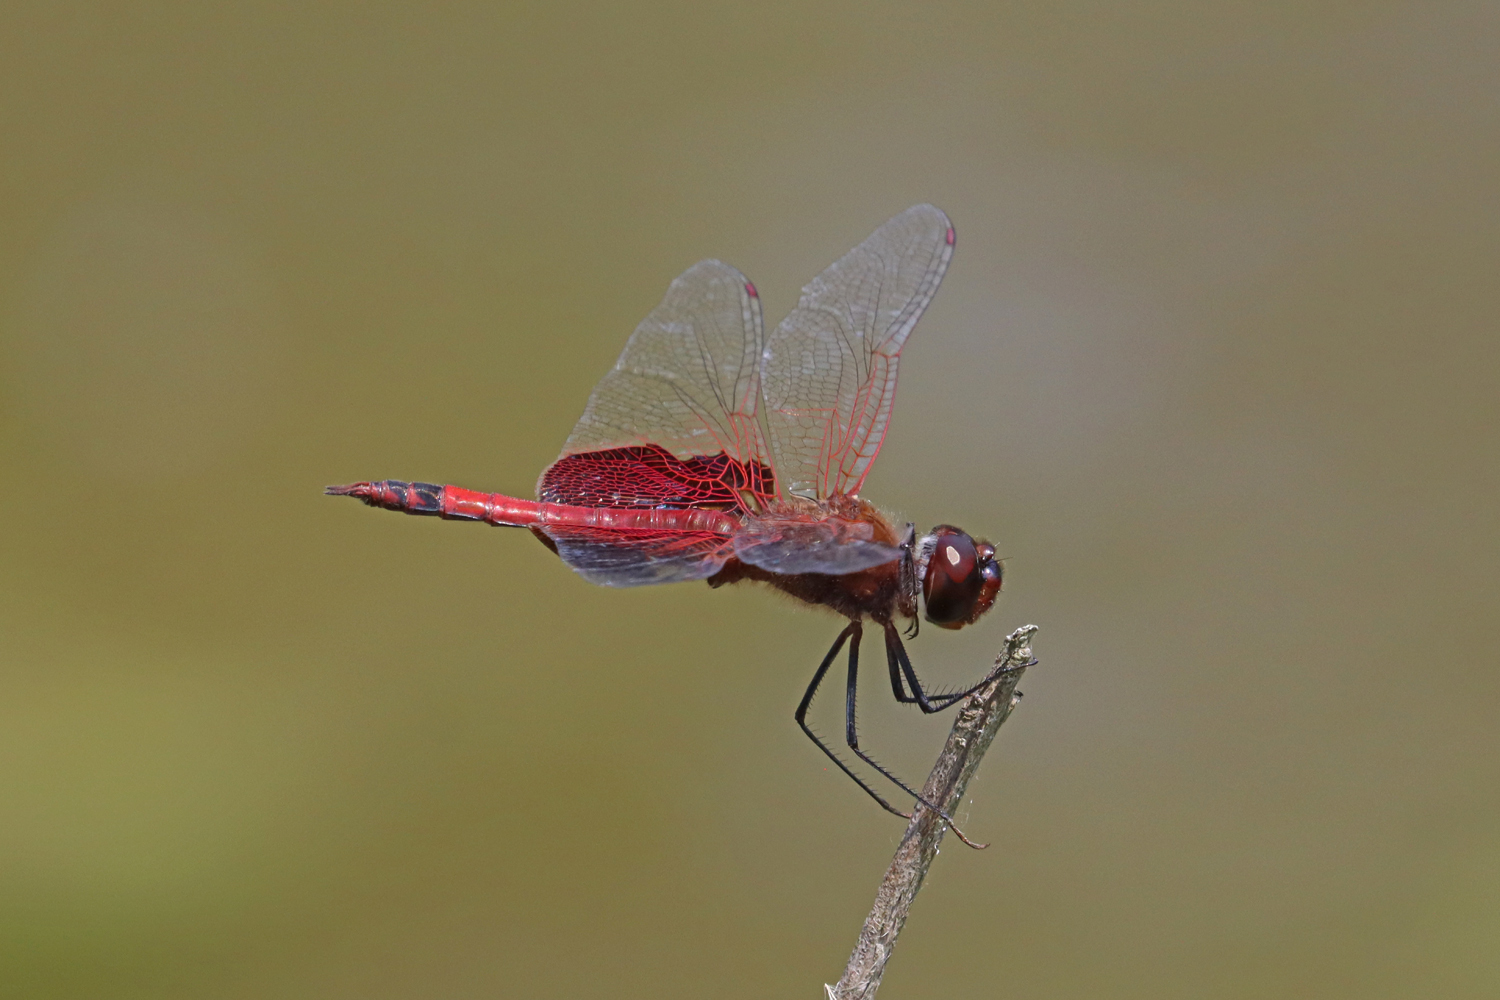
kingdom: Animalia
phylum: Arthropoda
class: Insecta
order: Odonata
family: Libellulidae
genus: Tramea
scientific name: Tramea carolina
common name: Carolina saddlebags
